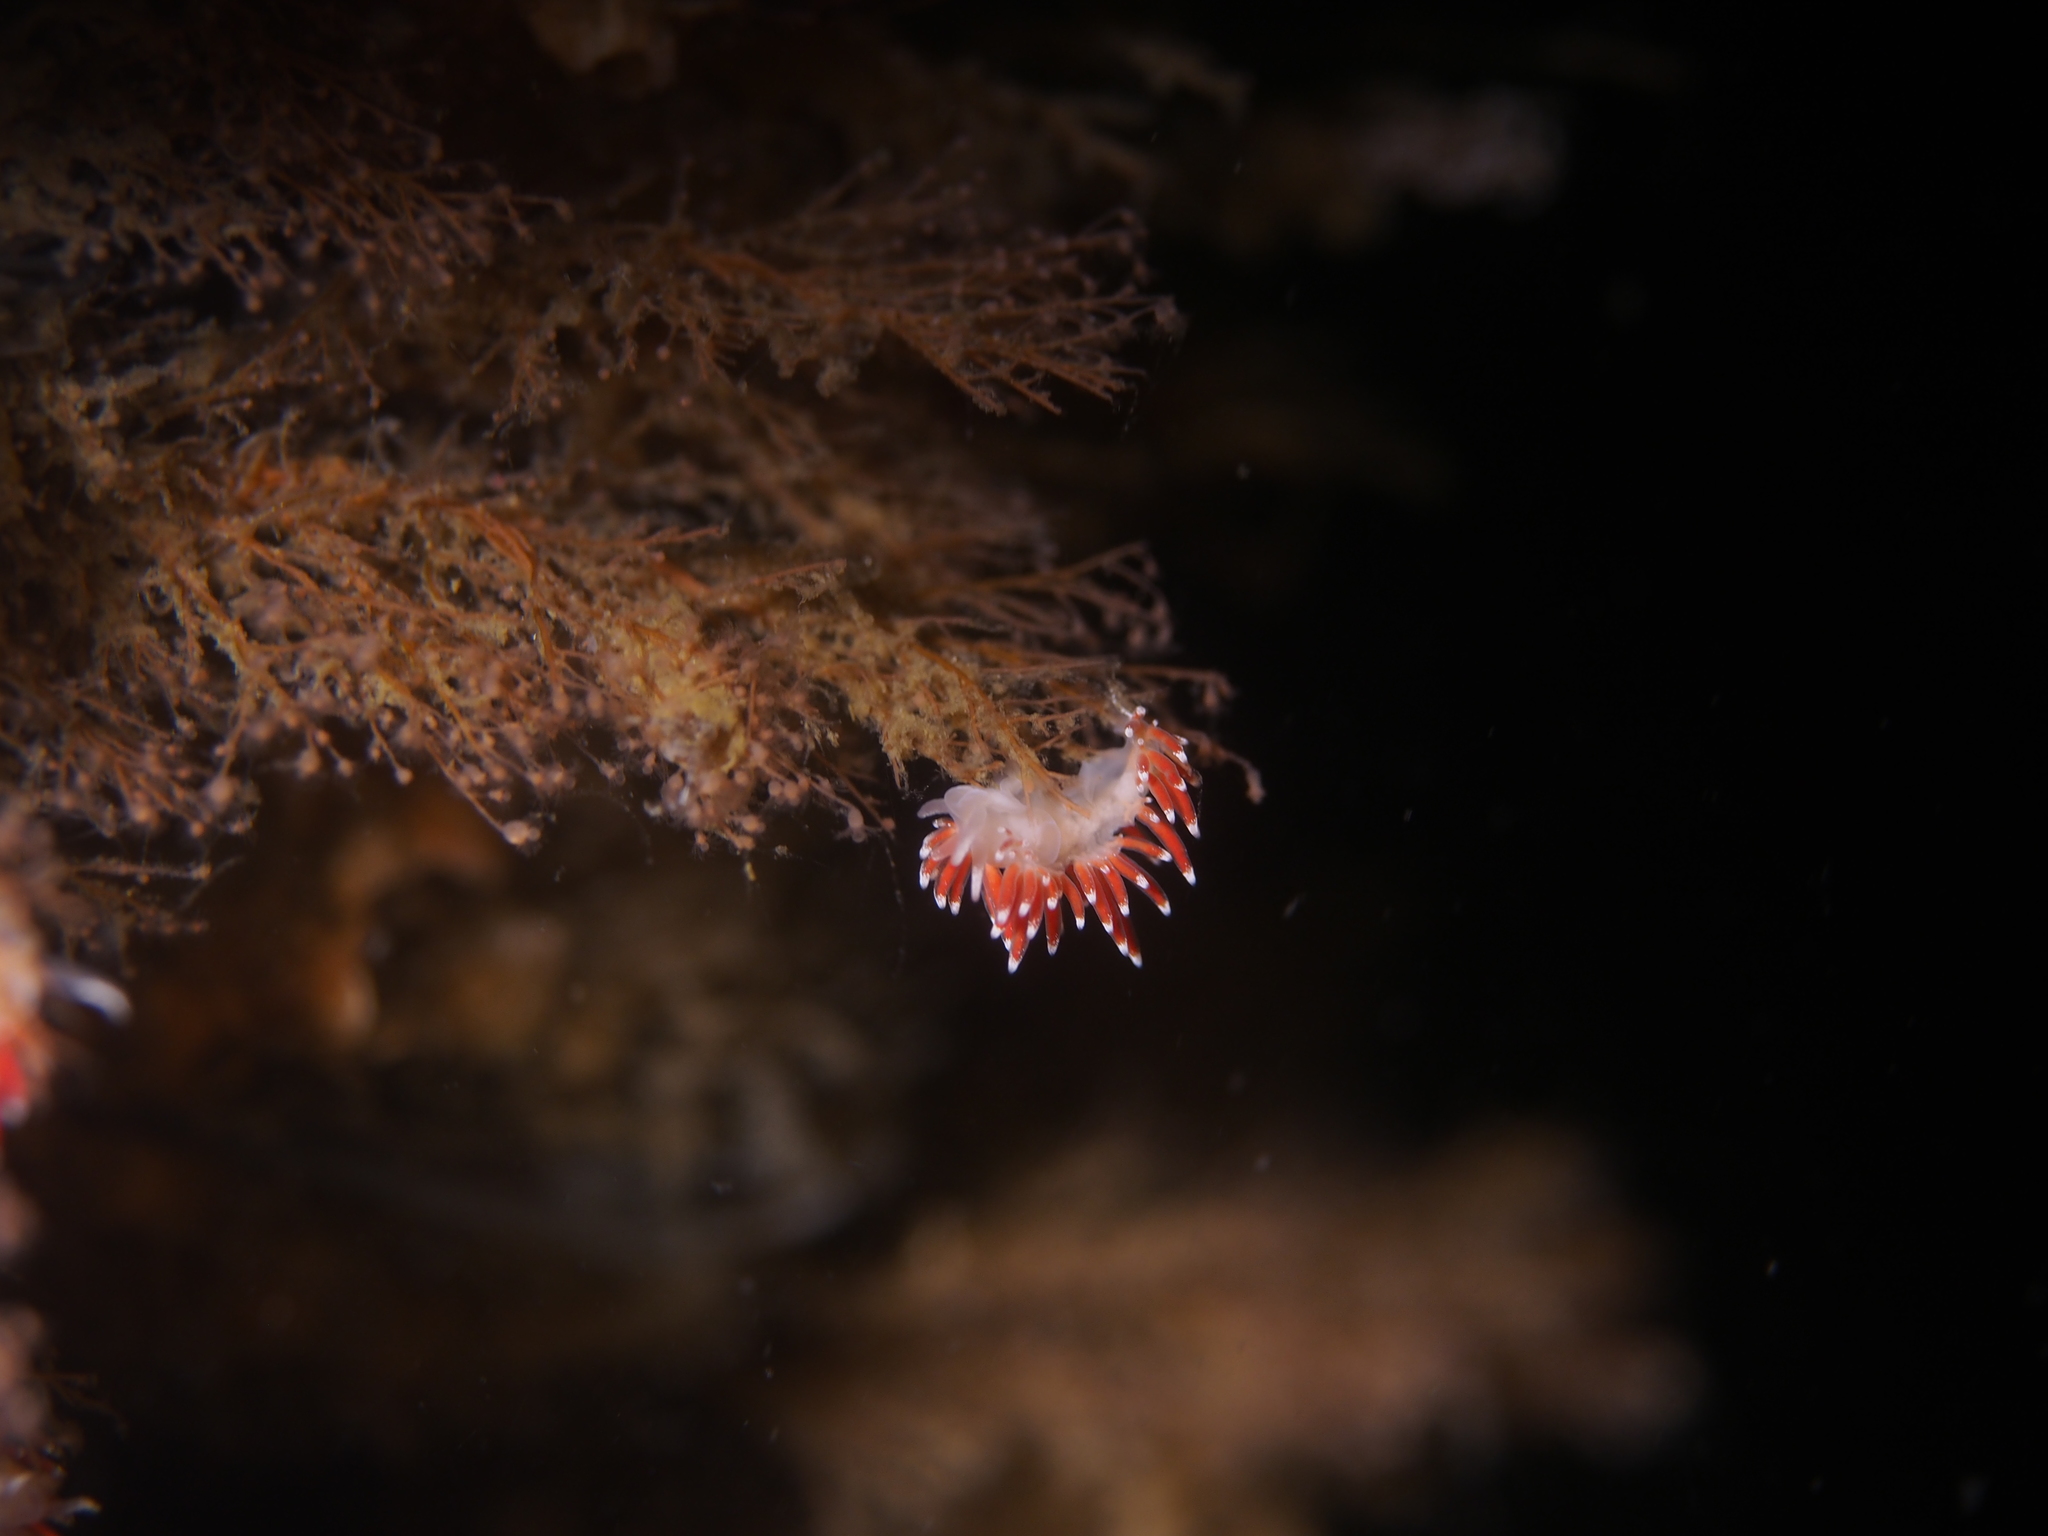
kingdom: Animalia
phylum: Mollusca
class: Gastropoda
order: Nudibranchia
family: Coryphellidae
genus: Coryphella
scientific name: Coryphella gracilis
